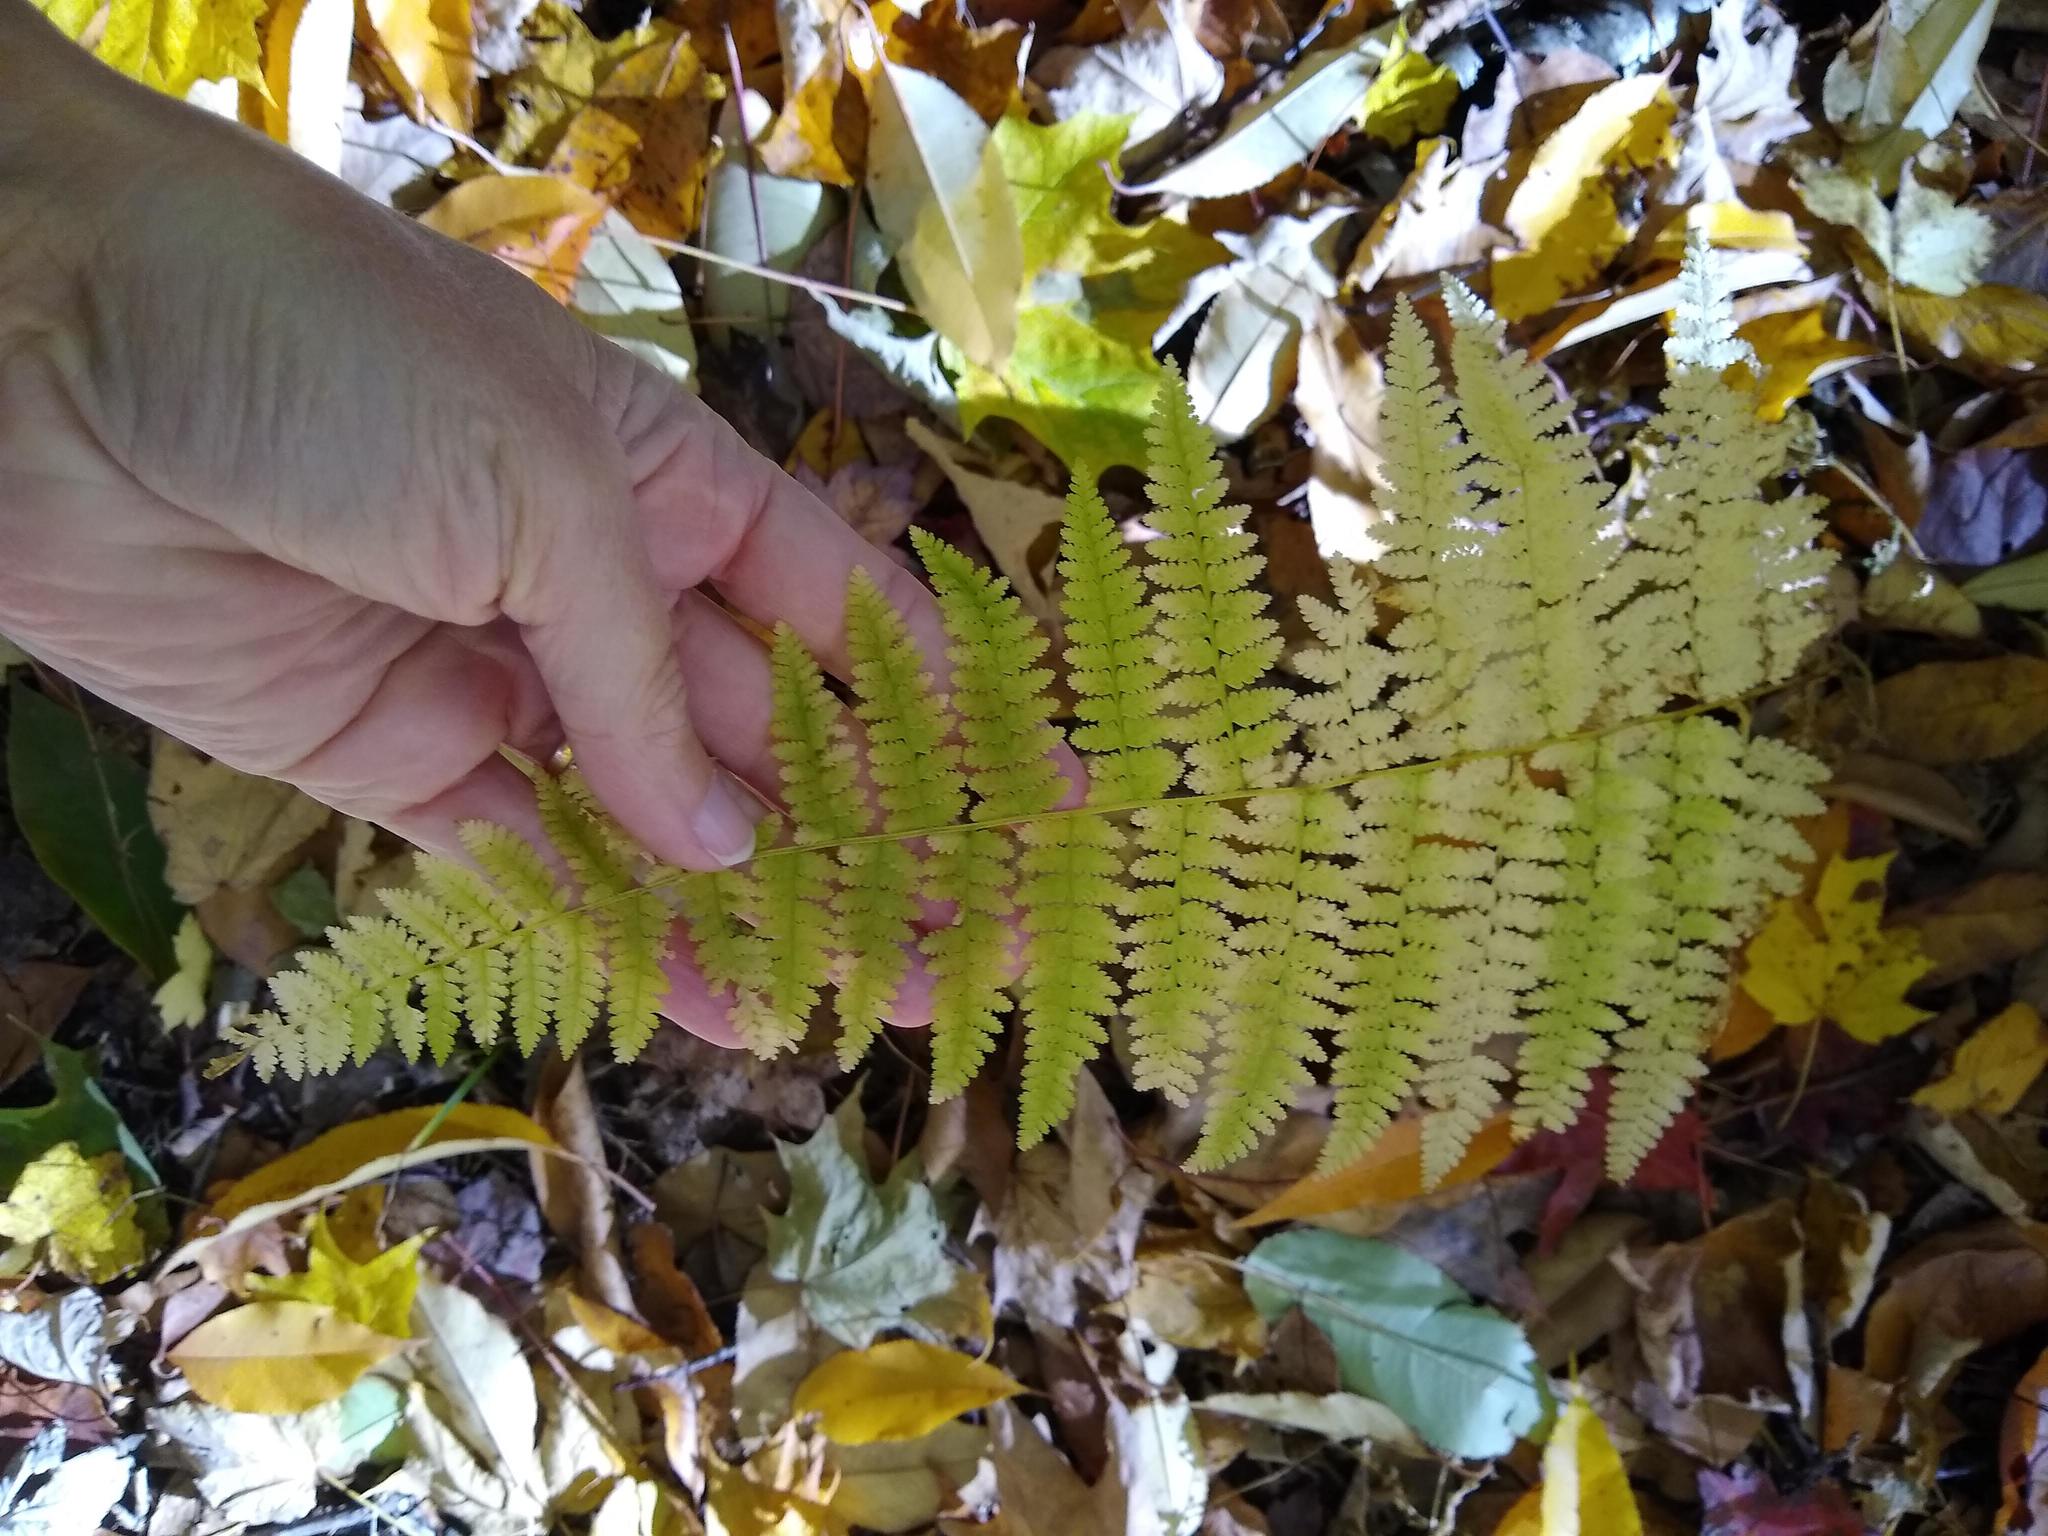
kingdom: Plantae
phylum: Tracheophyta
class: Polypodiopsida
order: Polypodiales
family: Dennstaedtiaceae
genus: Sitobolium
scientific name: Sitobolium punctilobum
